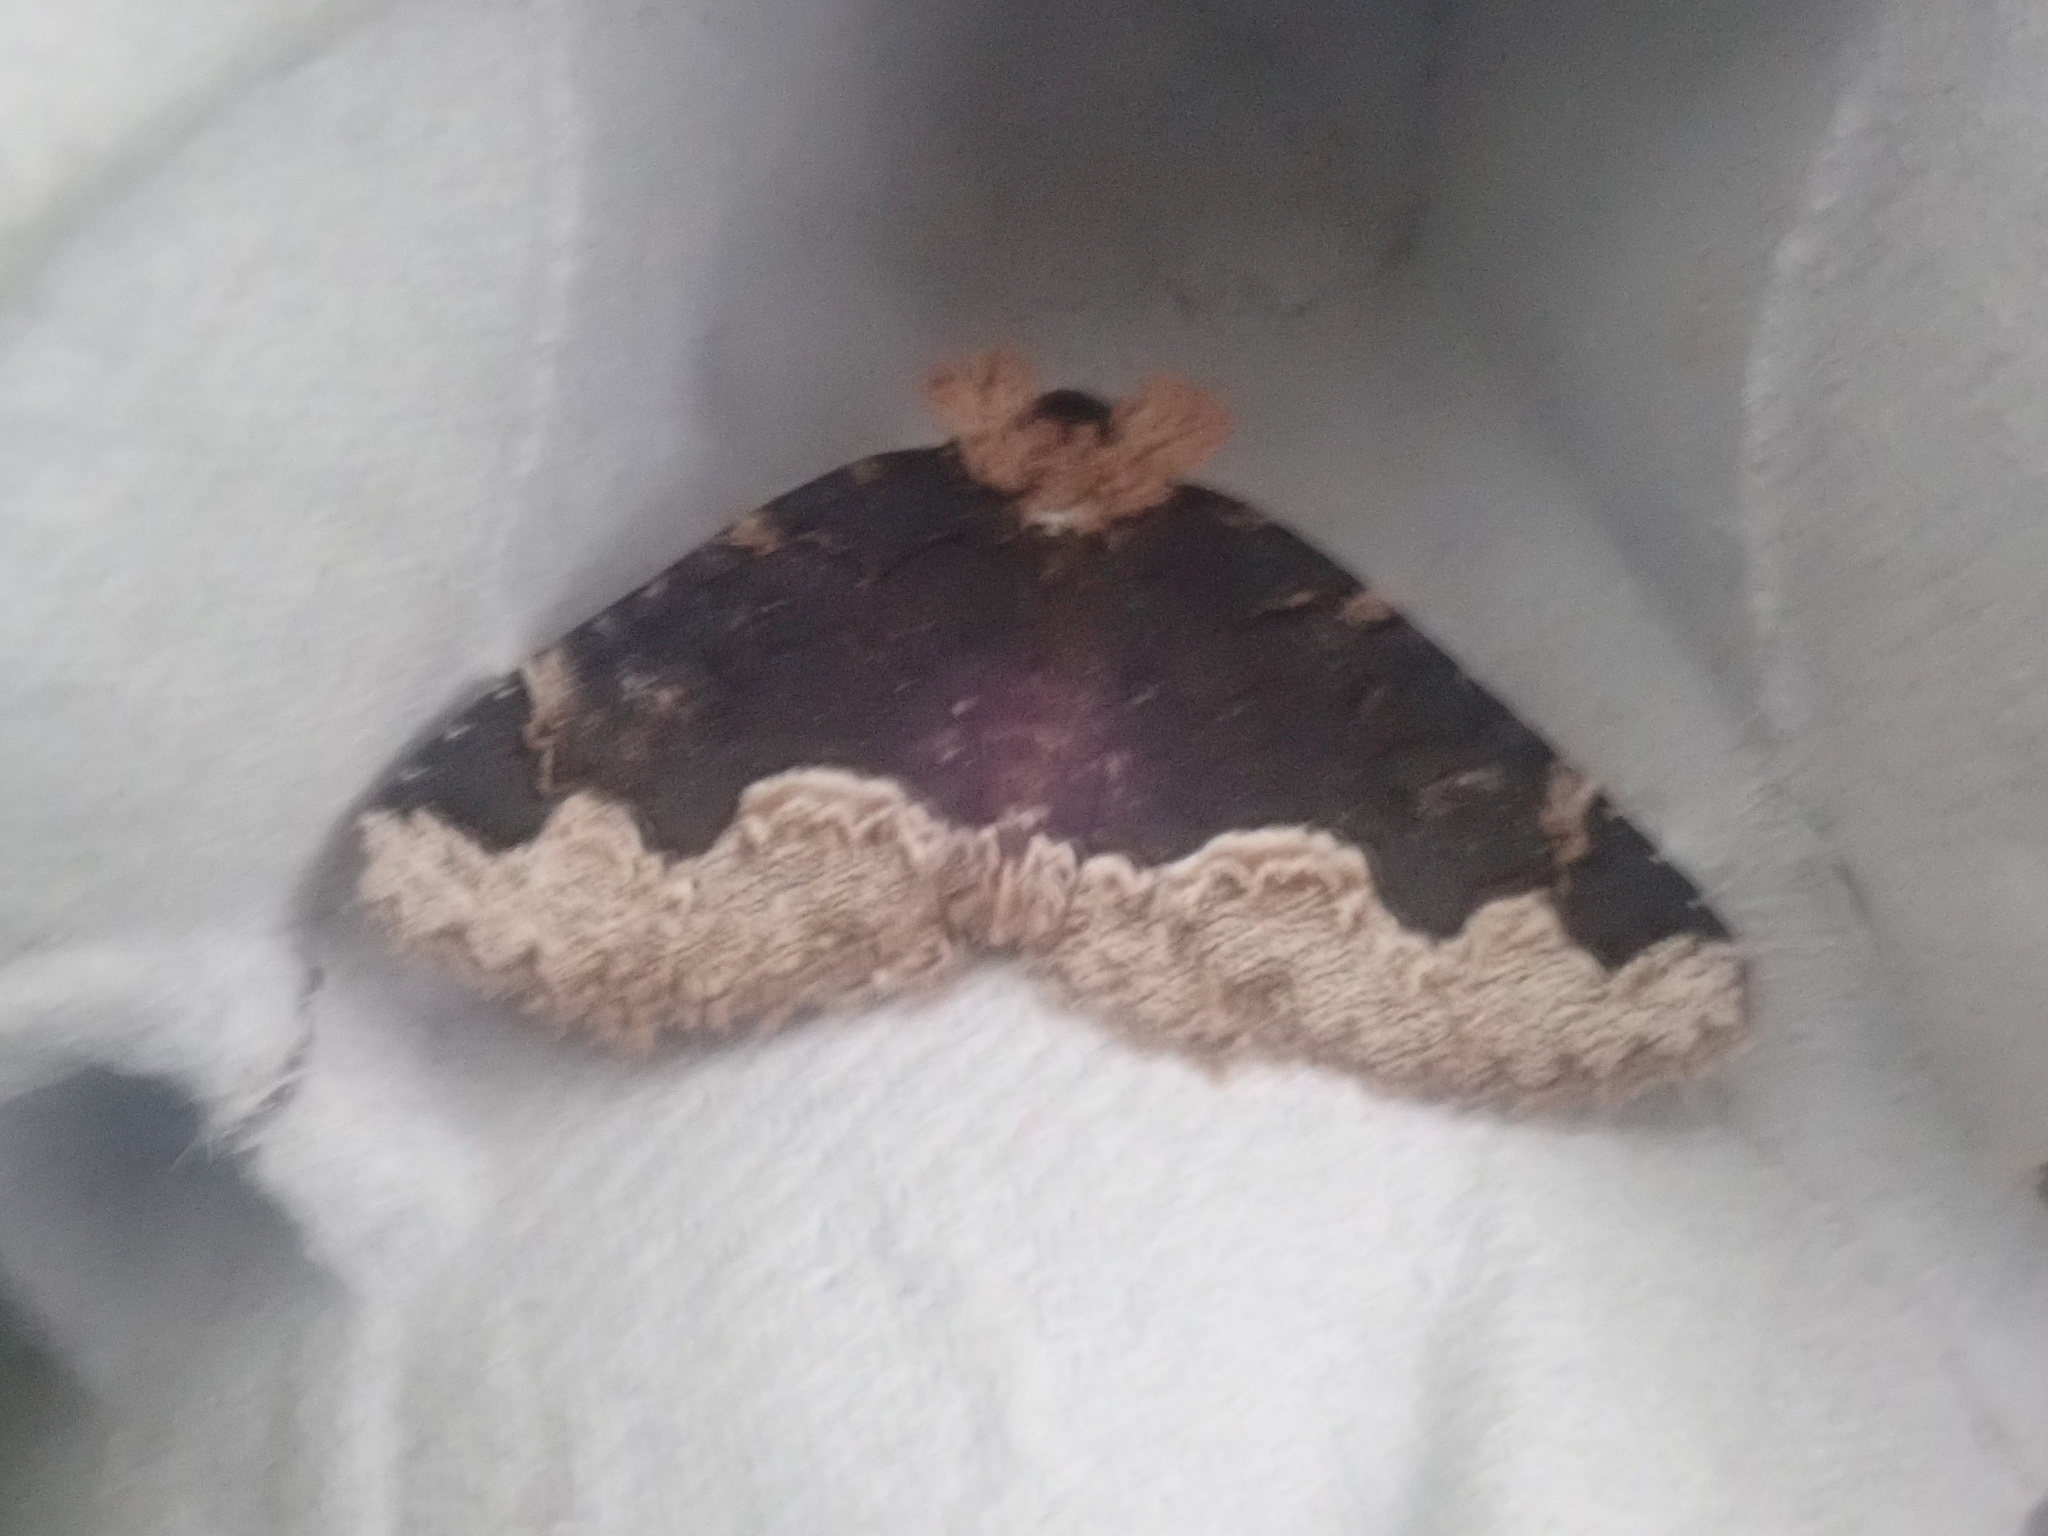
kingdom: Animalia
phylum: Arthropoda
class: Insecta
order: Lepidoptera
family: Erebidae
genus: Zale
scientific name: Zale horrida
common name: Horrid zale moth
